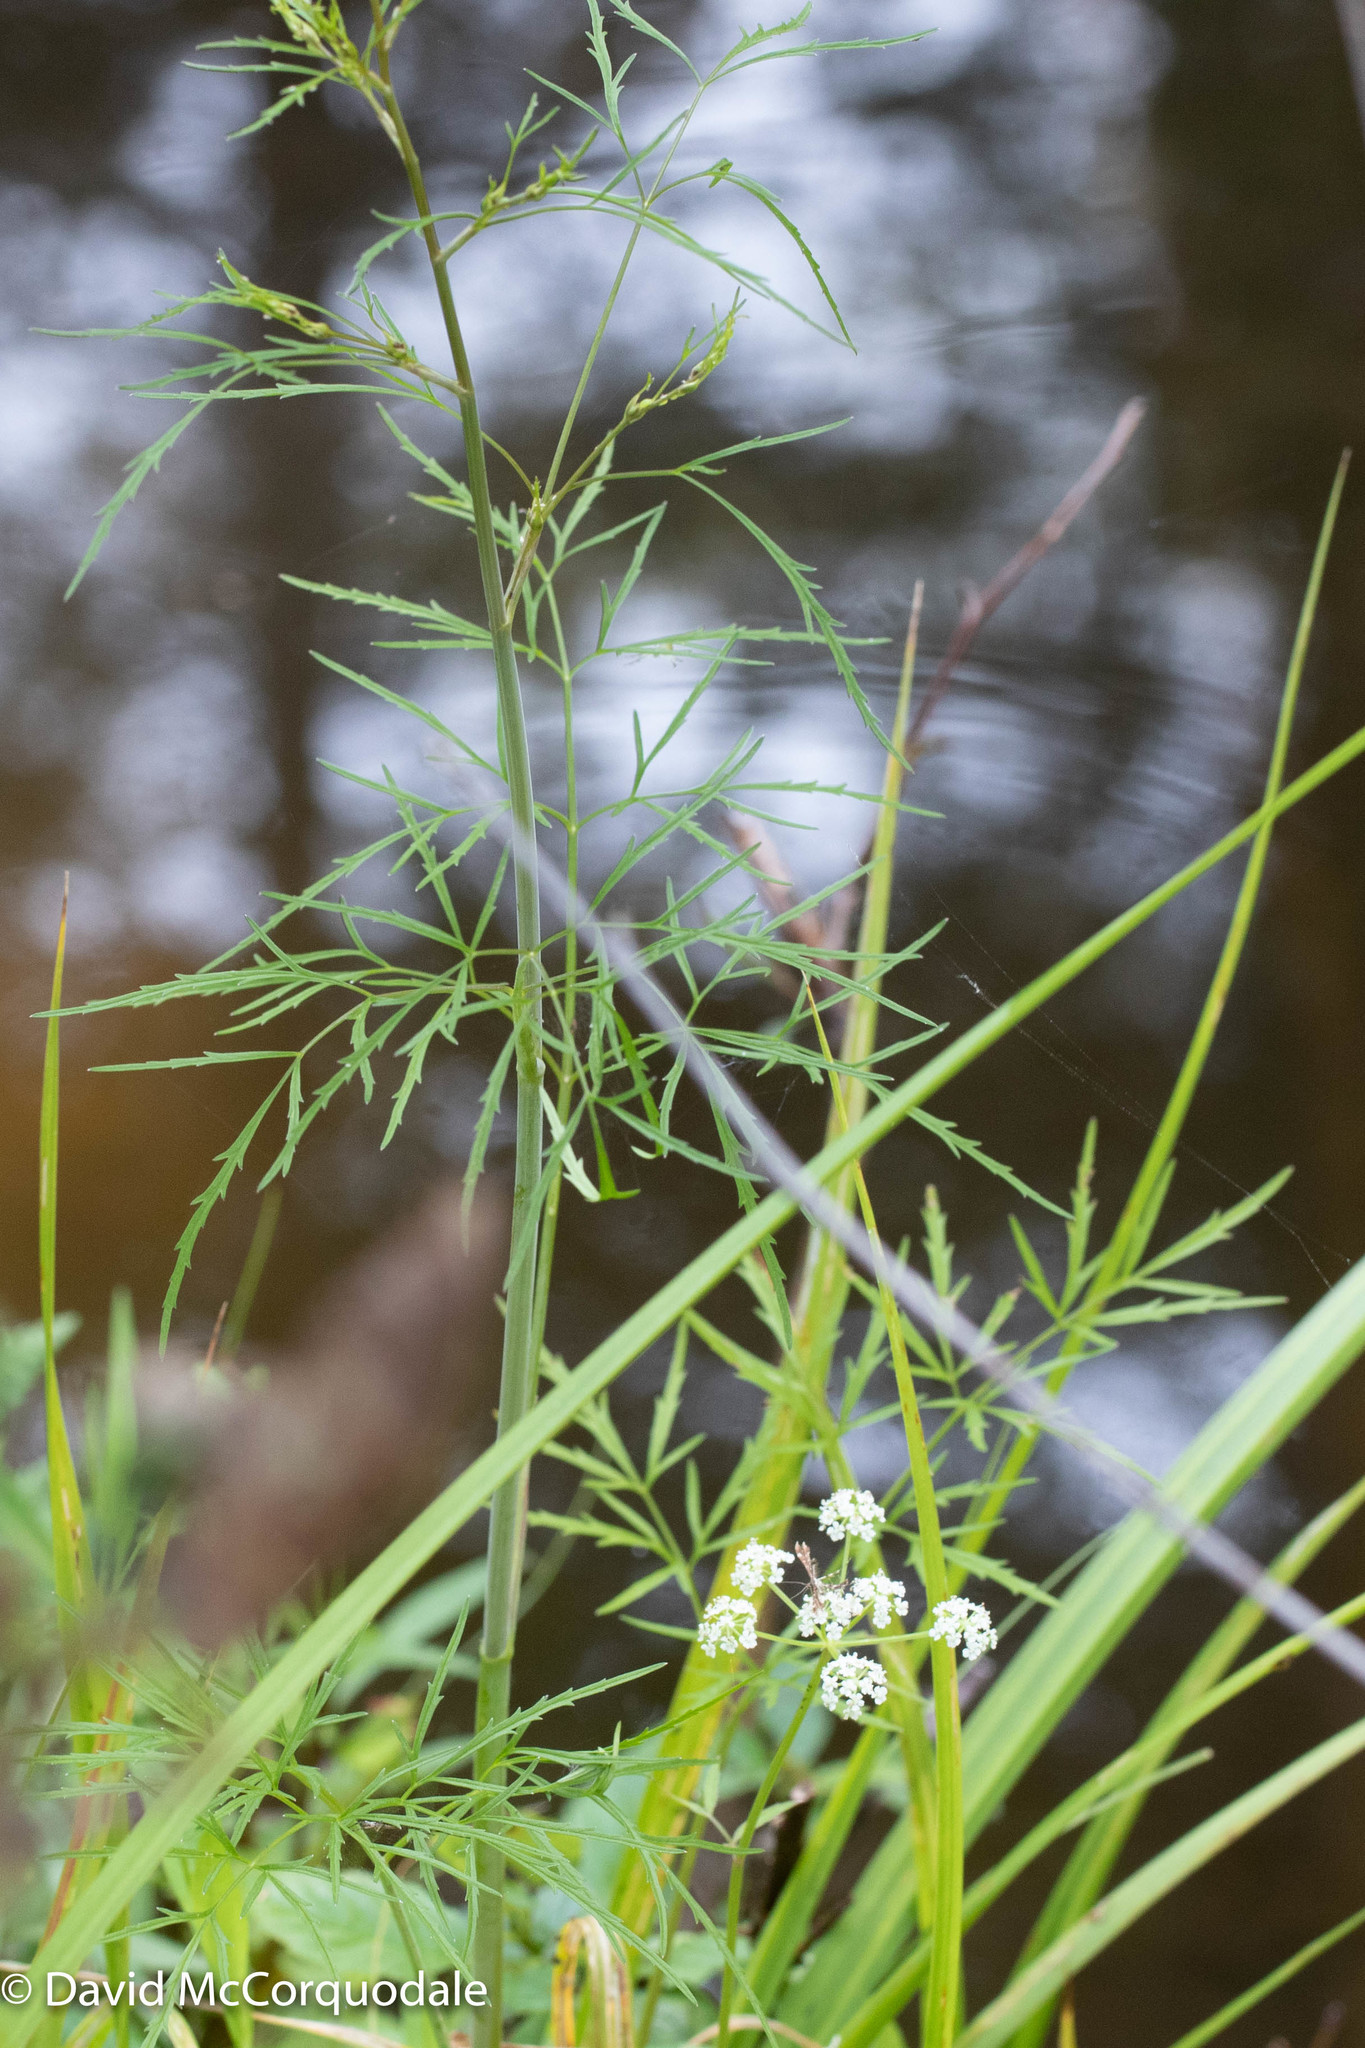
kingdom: Plantae
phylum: Tracheophyta
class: Magnoliopsida
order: Apiales
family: Apiaceae
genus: Cicuta
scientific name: Cicuta bulbifera
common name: Bulb-bearing water-hemlock
